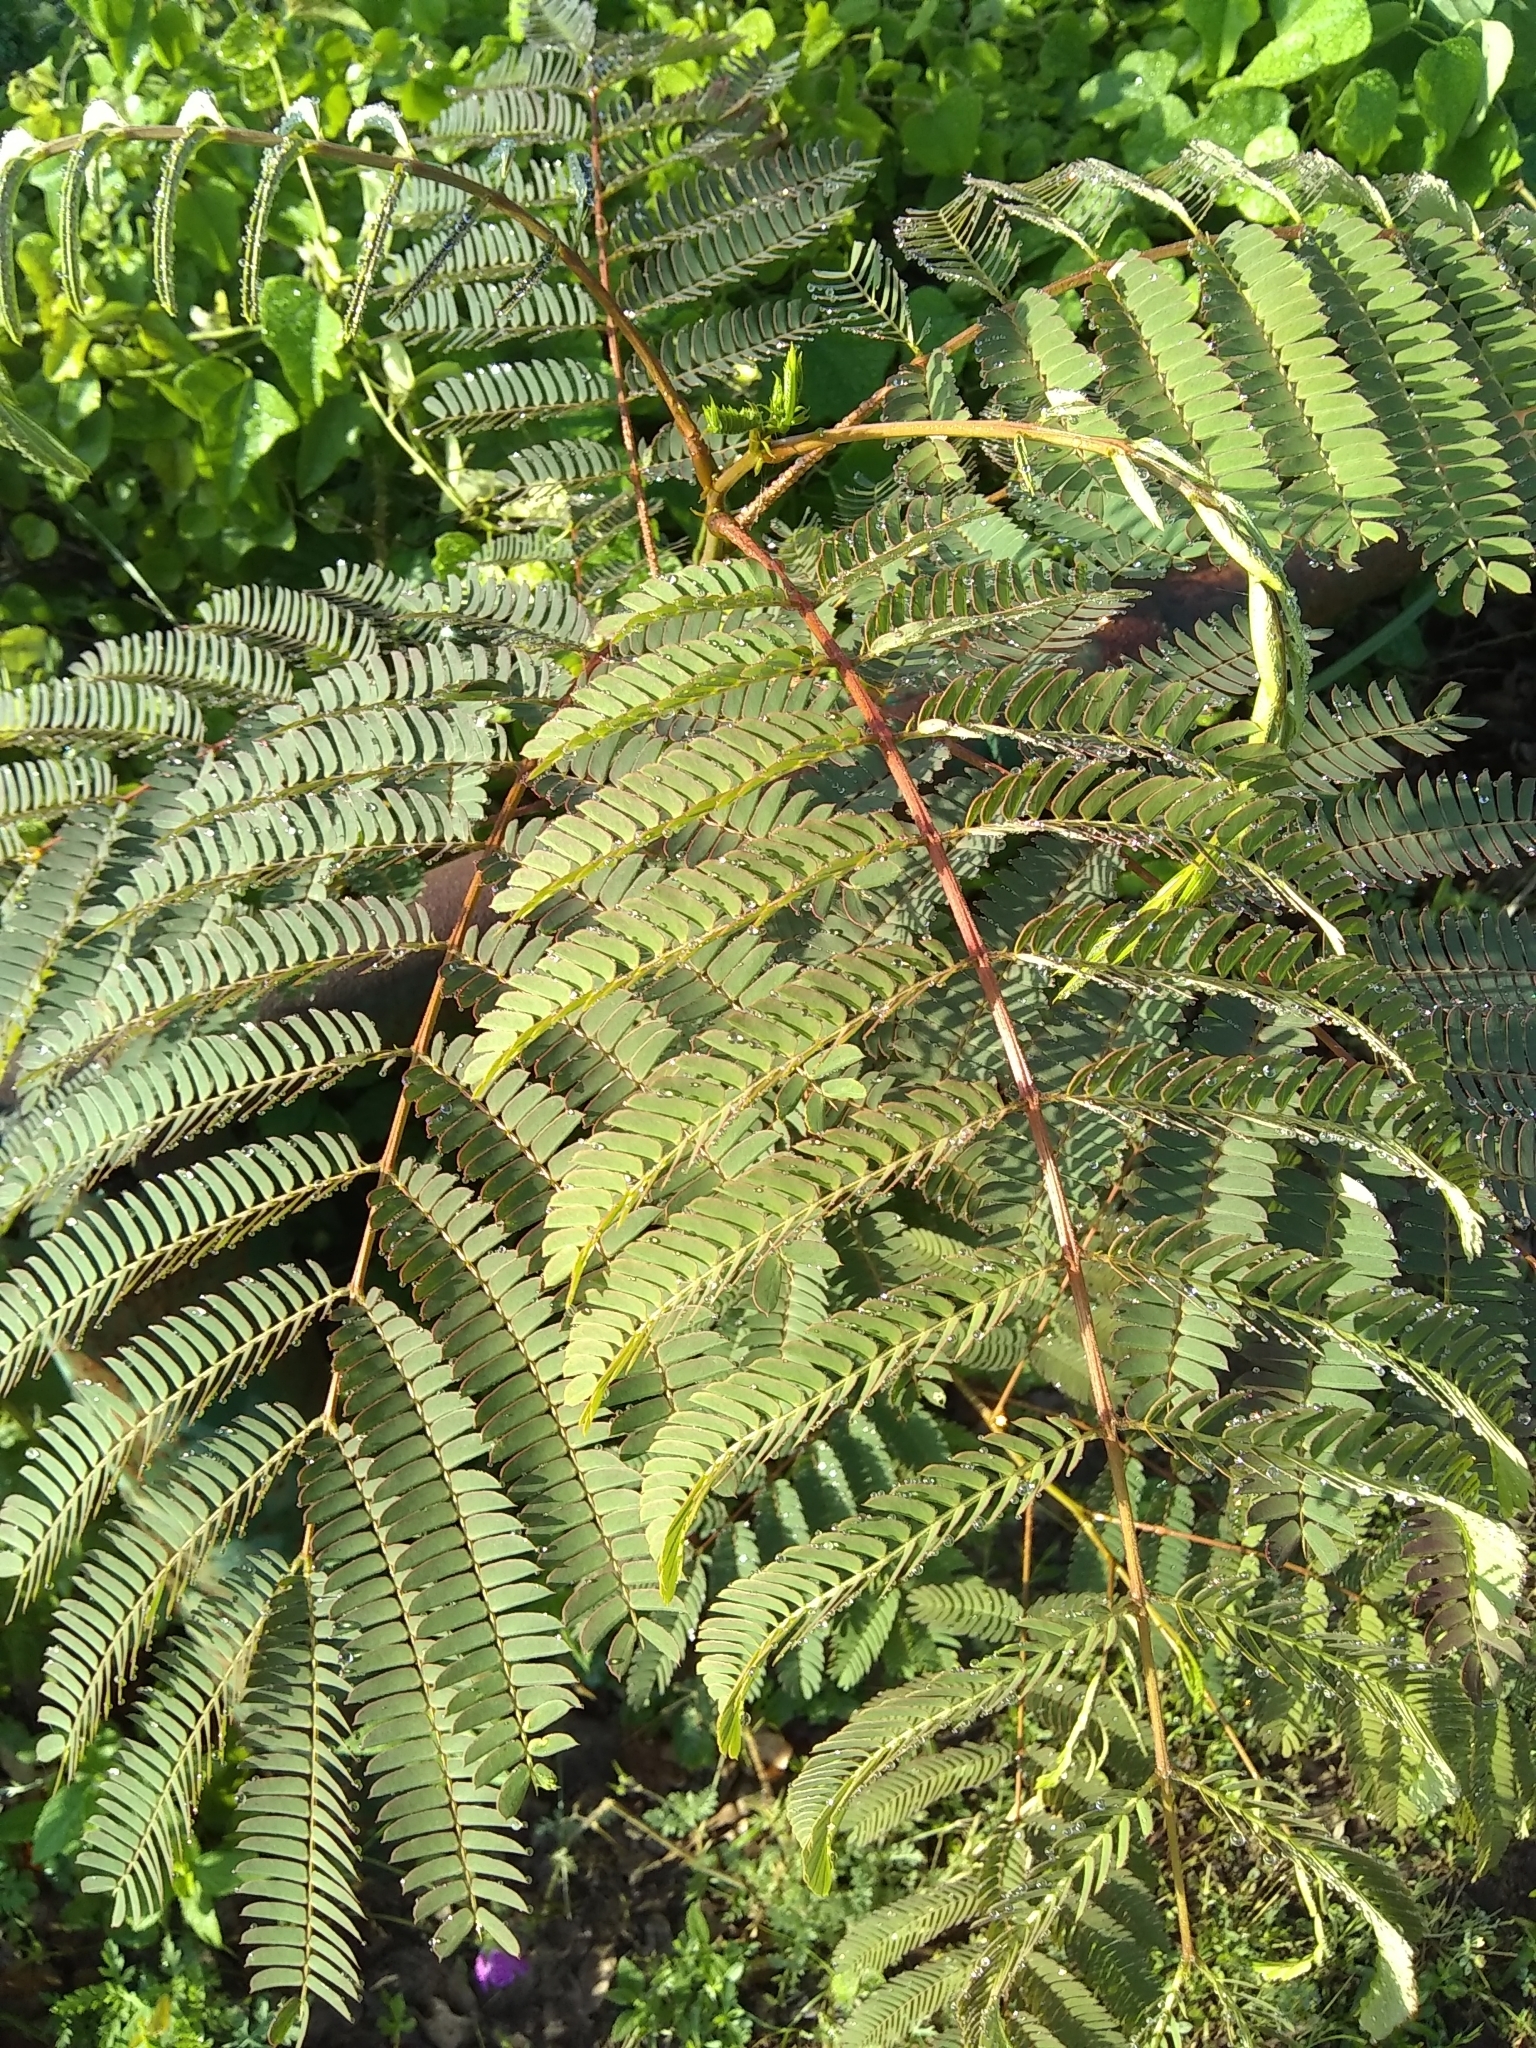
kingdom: Plantae
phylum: Tracheophyta
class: Magnoliopsida
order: Fabales
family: Fabaceae
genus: Albizia
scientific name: Albizia julibrissin
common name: Silktree
